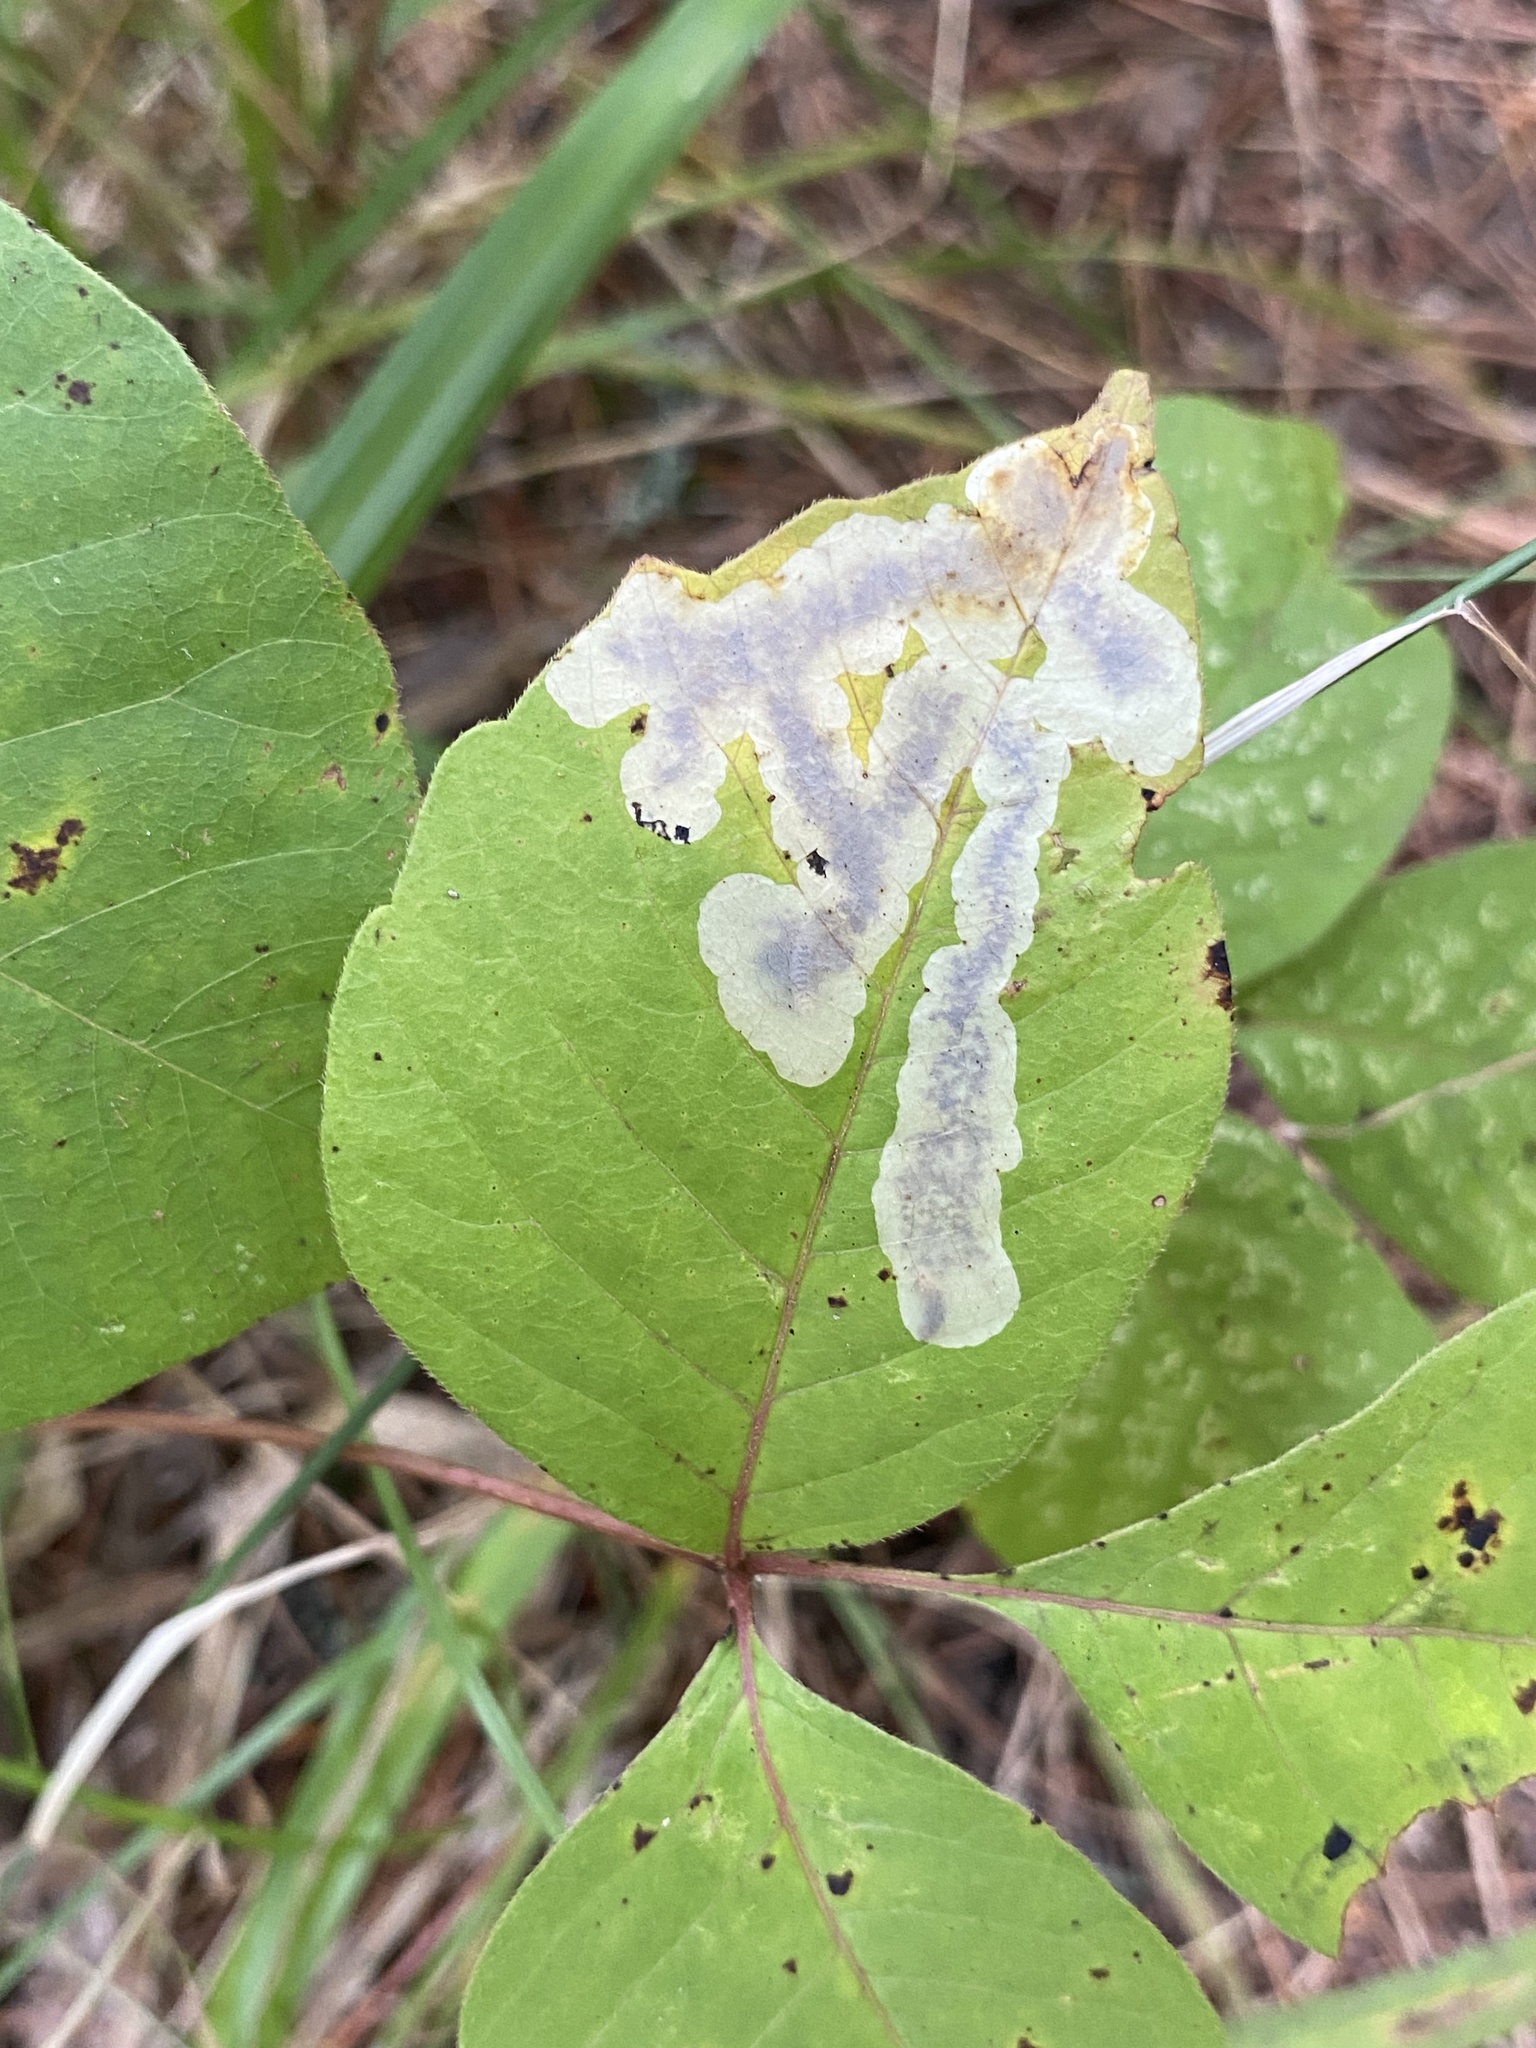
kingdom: Animalia
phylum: Arthropoda
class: Insecta
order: Lepidoptera
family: Gracillariidae
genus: Cameraria
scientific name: Cameraria guttifinitella
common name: Poison ivy leaf-miner moth
